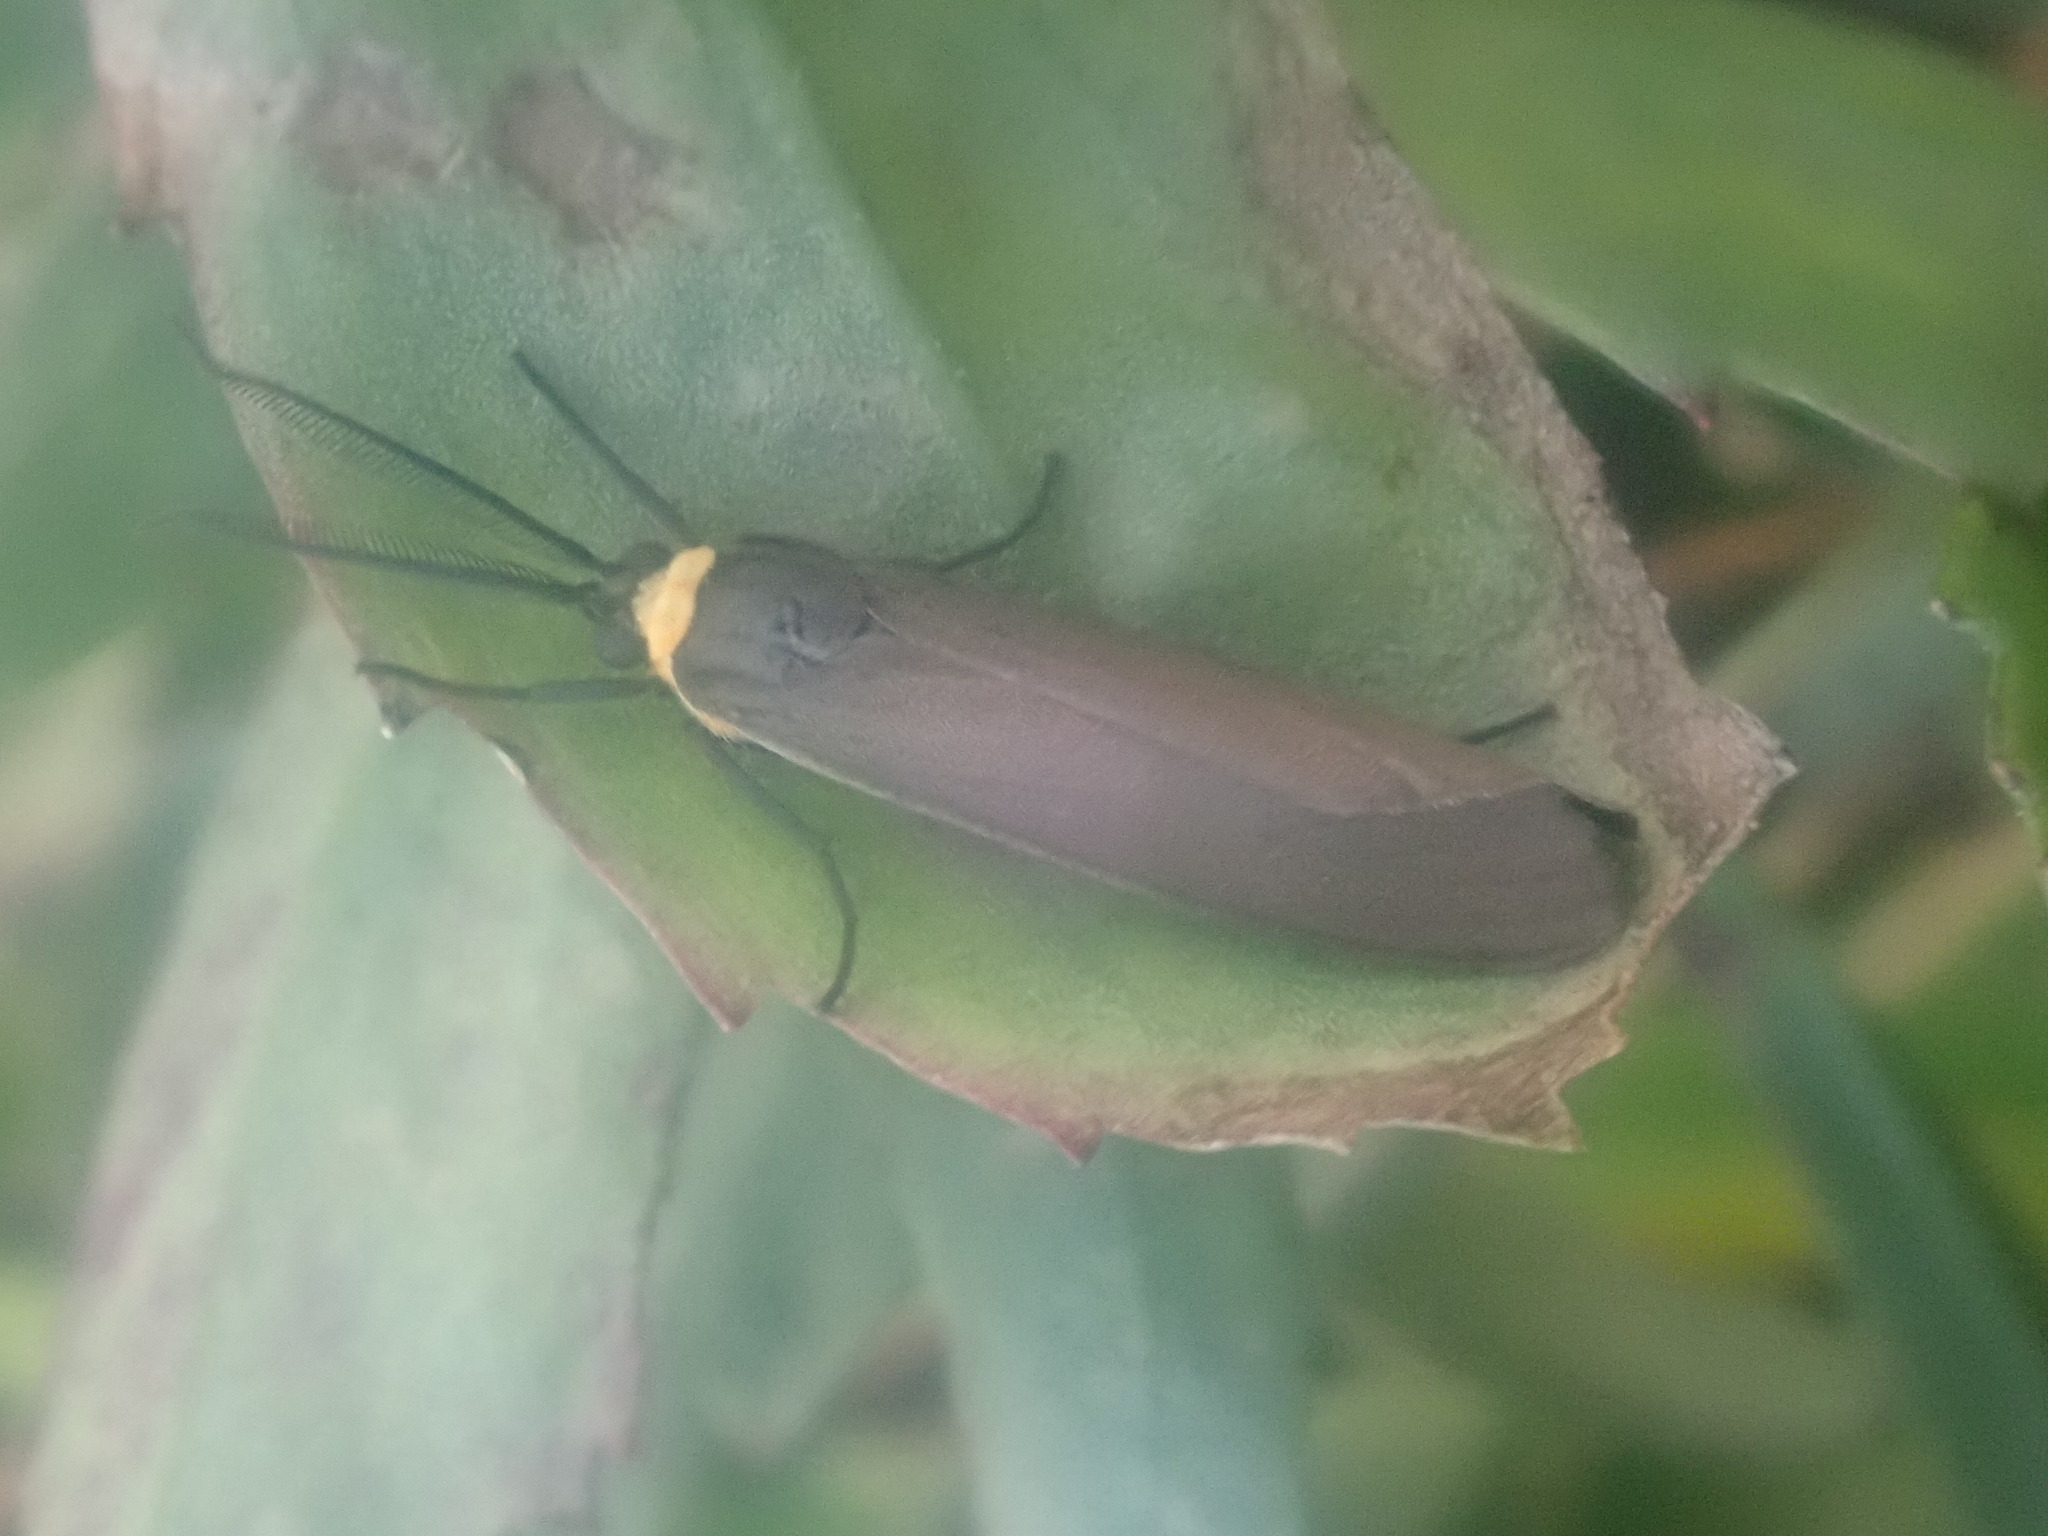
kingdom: Animalia
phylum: Arthropoda
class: Insecta
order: Lepidoptera
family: Erebidae
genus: Cisseps
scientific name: Cisseps fulvicollis
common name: Yellow-collared scape moth
